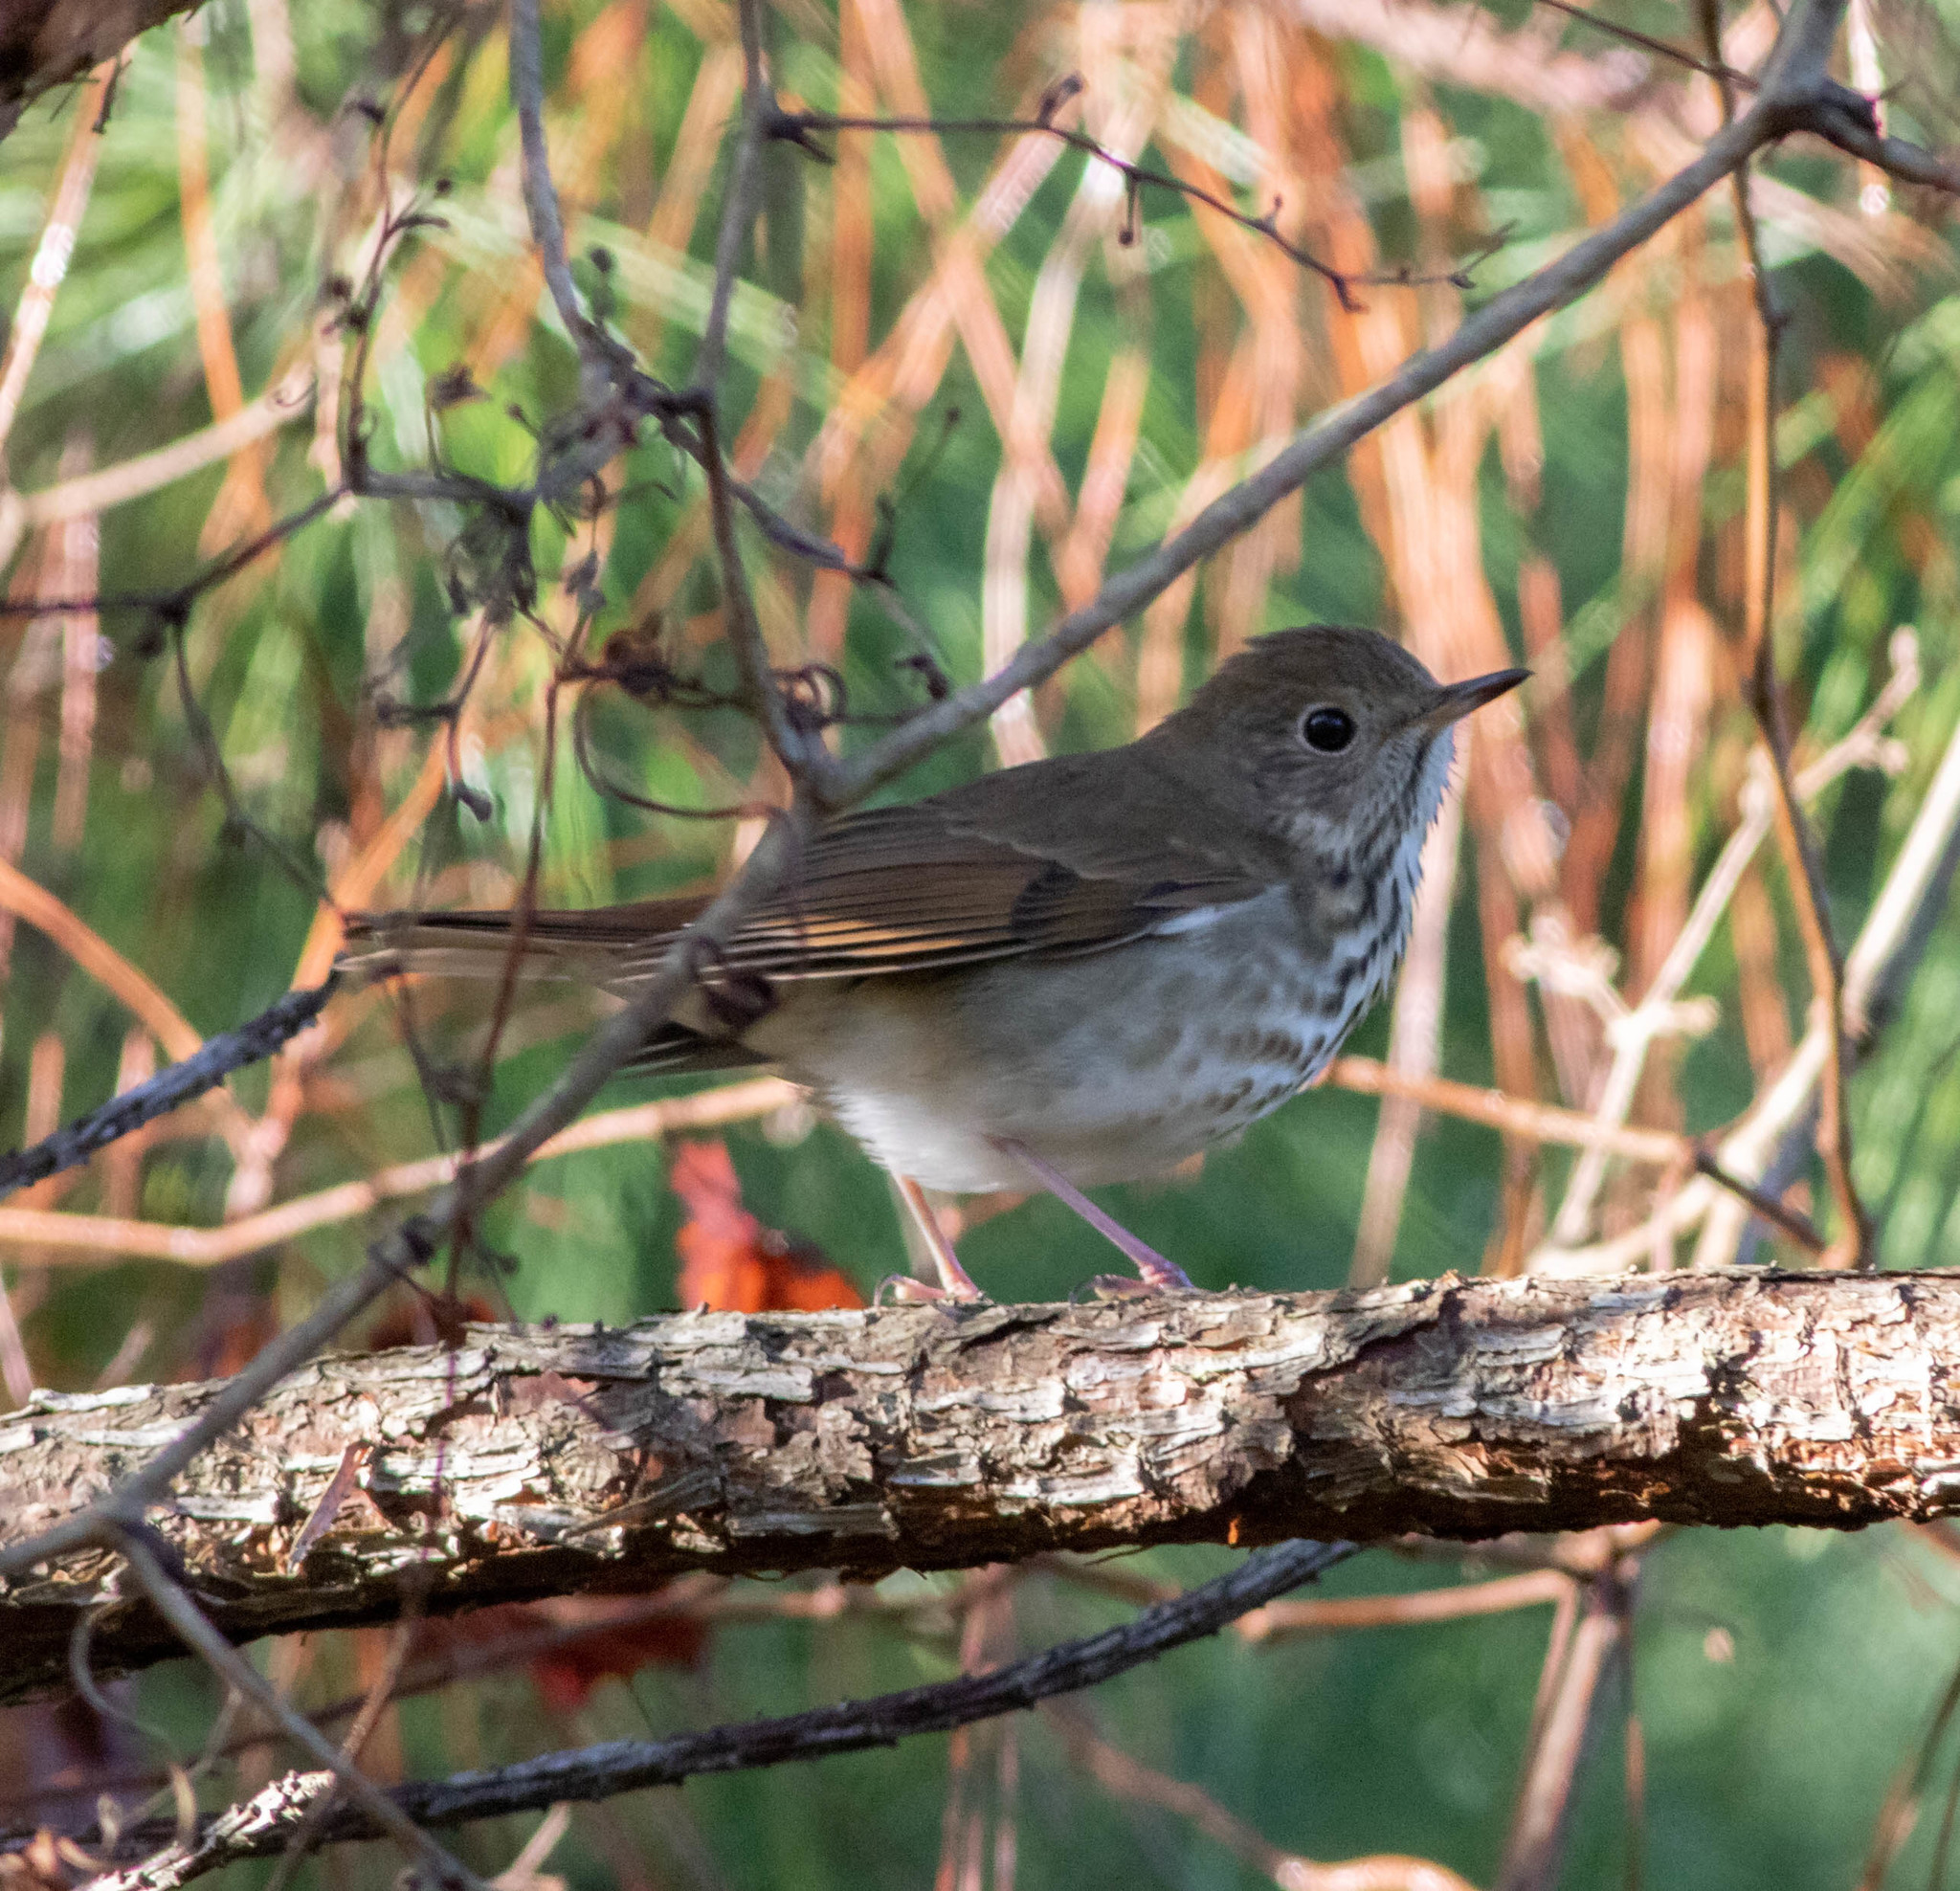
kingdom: Animalia
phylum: Chordata
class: Aves
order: Passeriformes
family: Turdidae
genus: Catharus
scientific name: Catharus guttatus
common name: Hermit thrush
